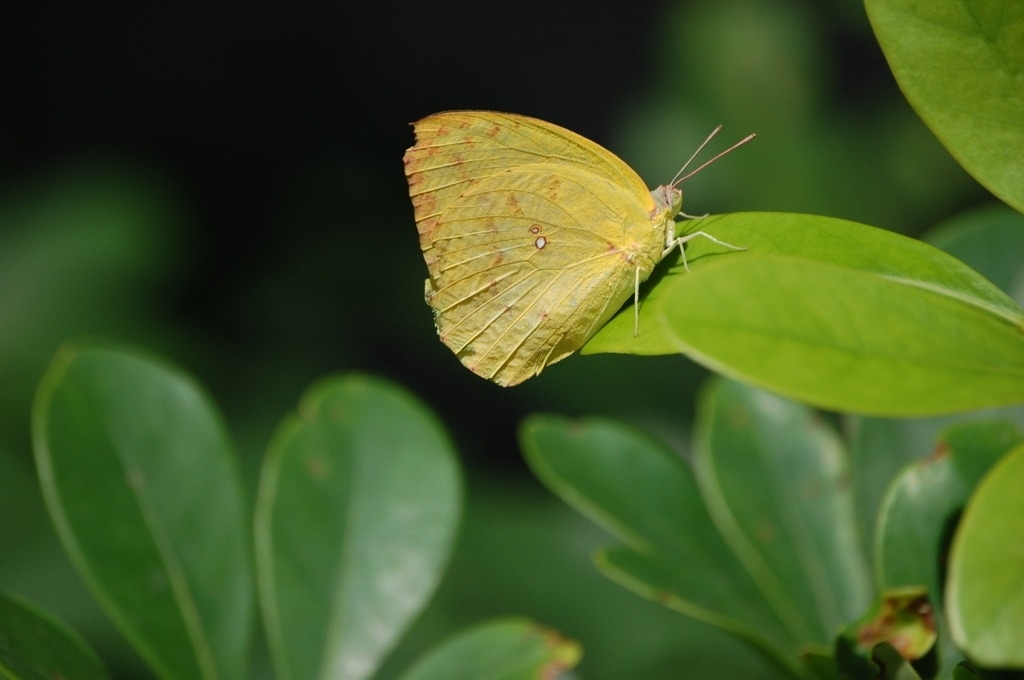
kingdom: Animalia
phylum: Arthropoda
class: Insecta
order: Lepidoptera
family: Pieridae
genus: Catopsilia
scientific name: Catopsilia pomona
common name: Common emigrant
